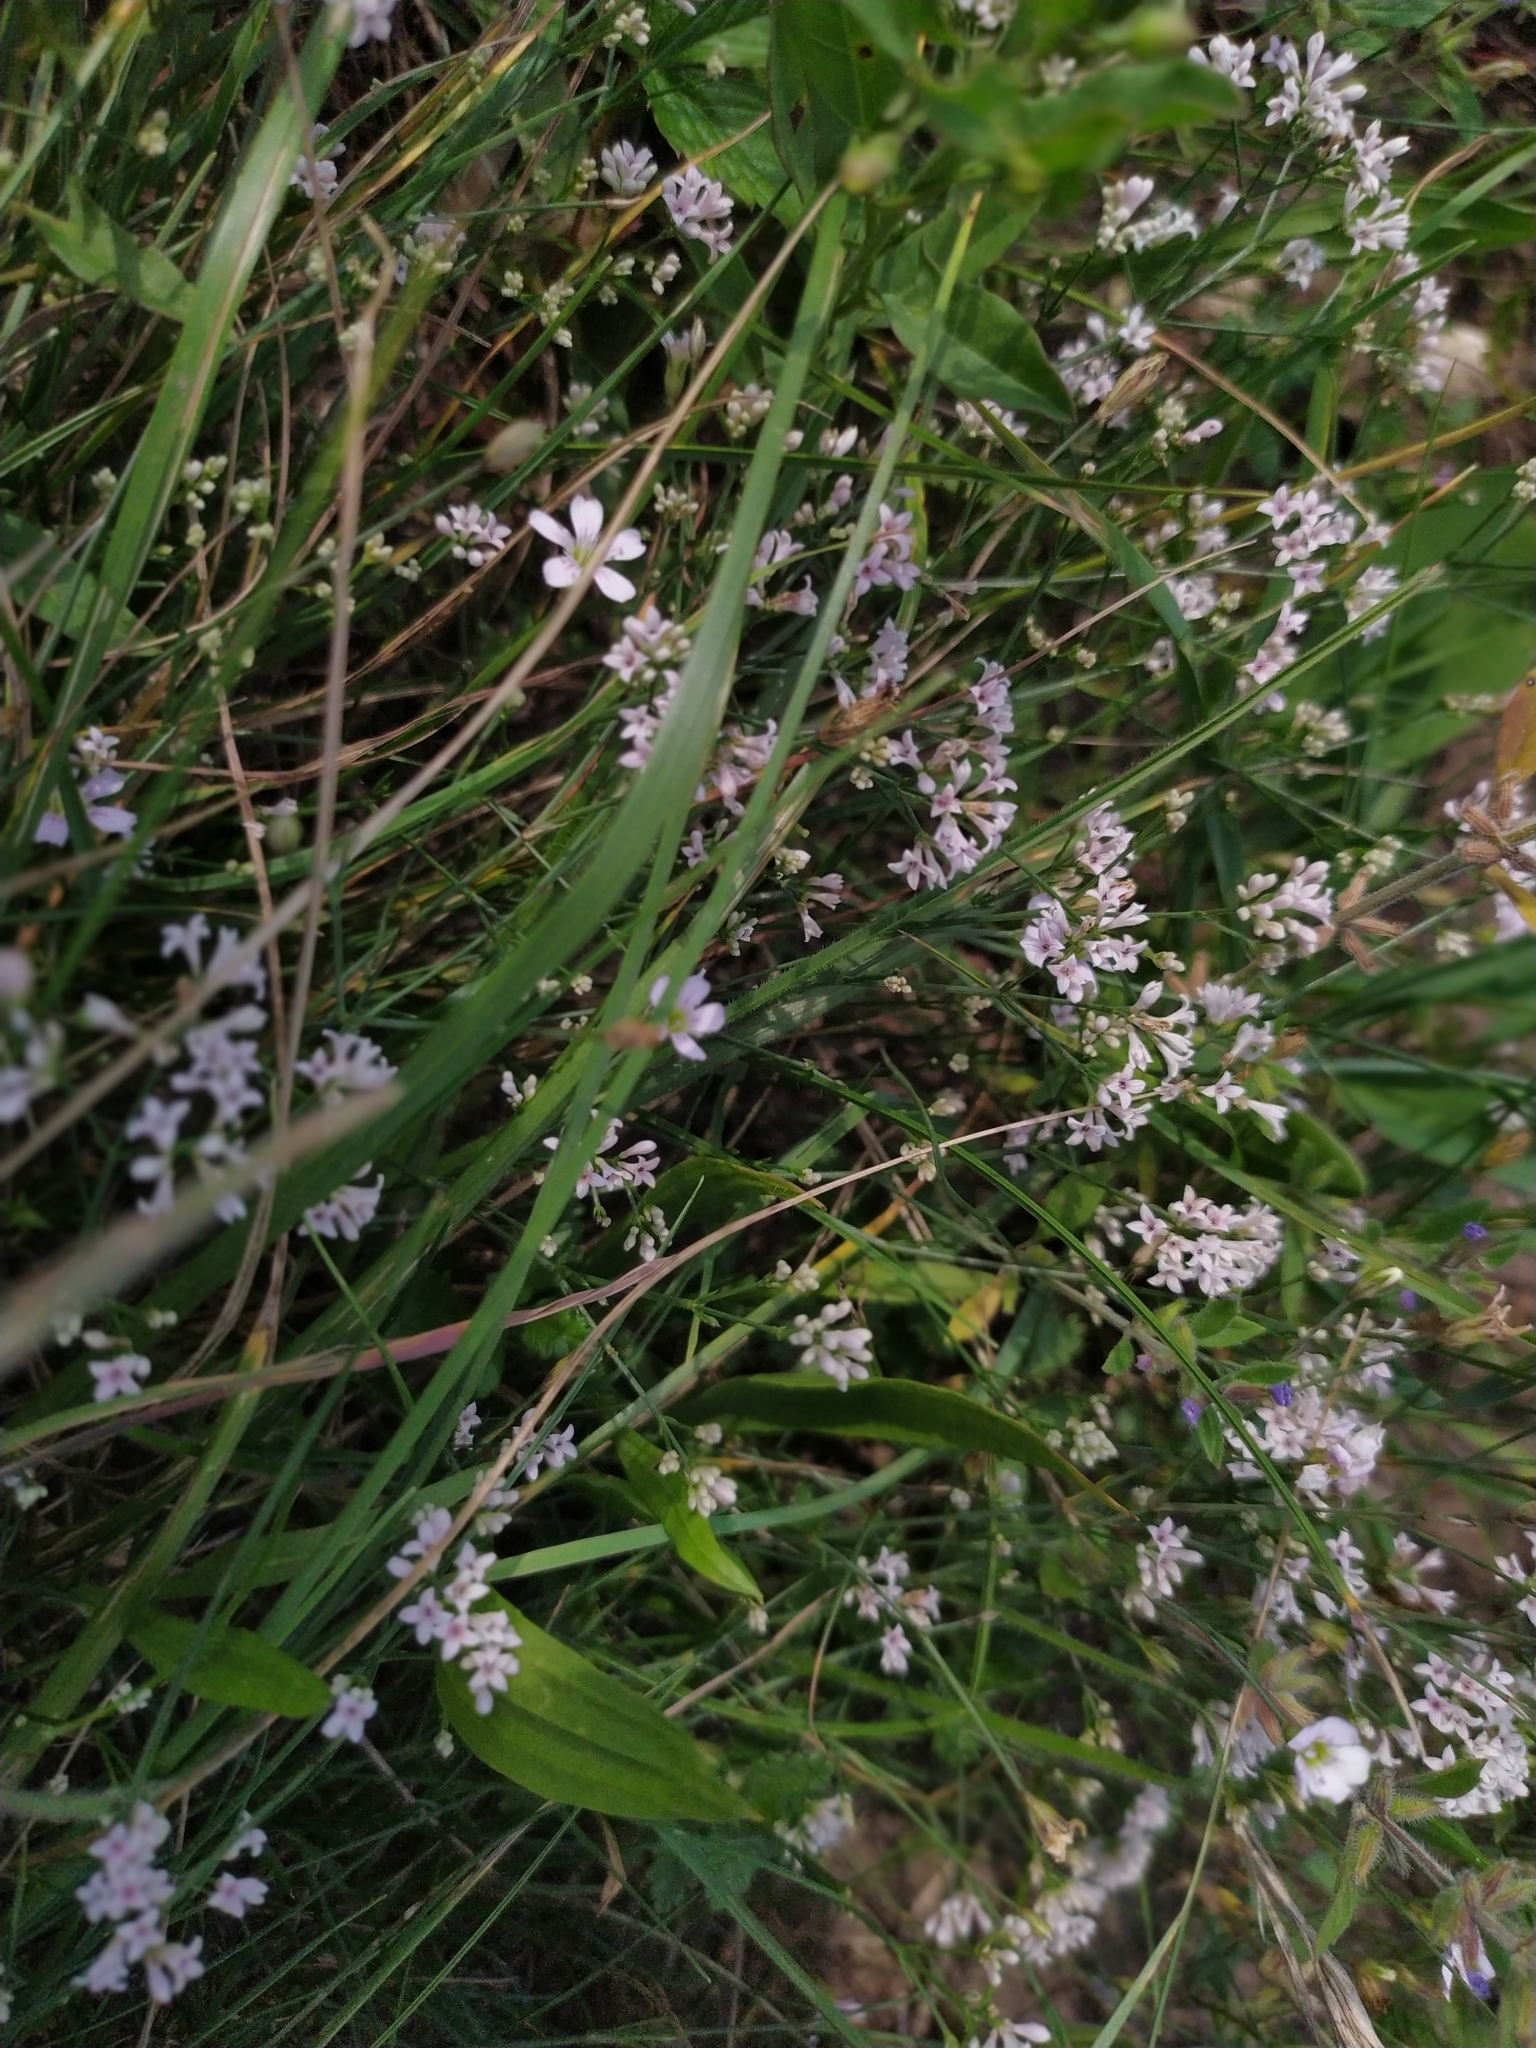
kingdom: Plantae
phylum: Tracheophyta
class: Magnoliopsida
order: Gentianales
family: Rubiaceae
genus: Cynanchica
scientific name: Cynanchica pyrenaica
